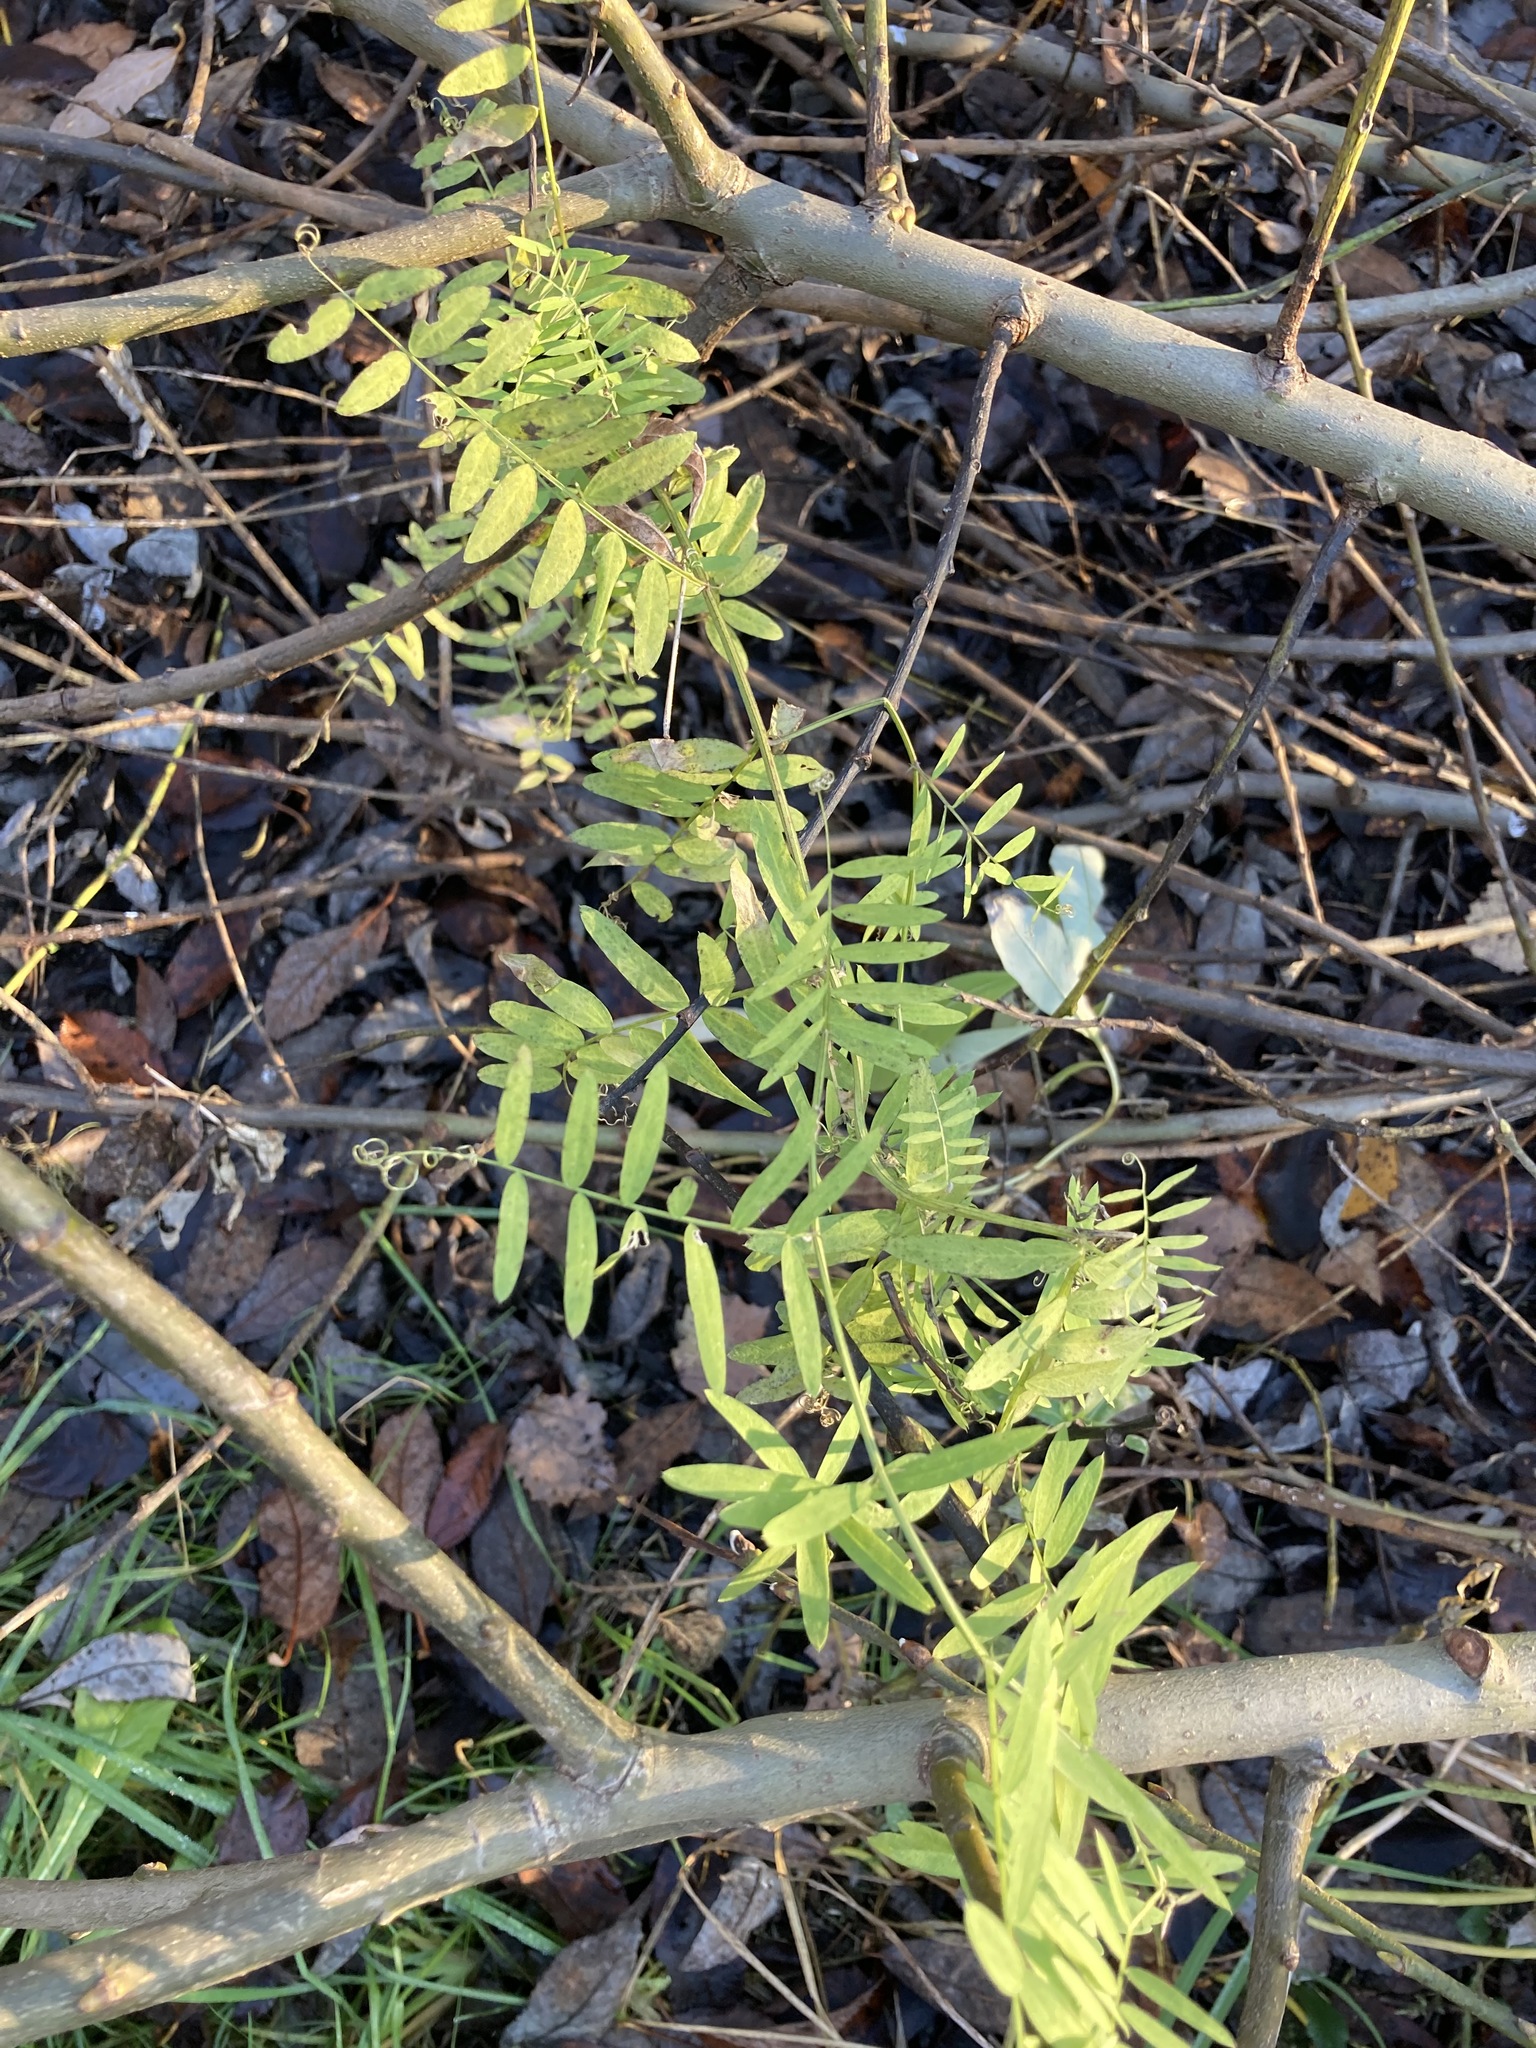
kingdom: Plantae
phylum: Tracheophyta
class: Magnoliopsida
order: Fabales
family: Fabaceae
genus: Vicia
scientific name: Vicia cracca
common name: Bird vetch
